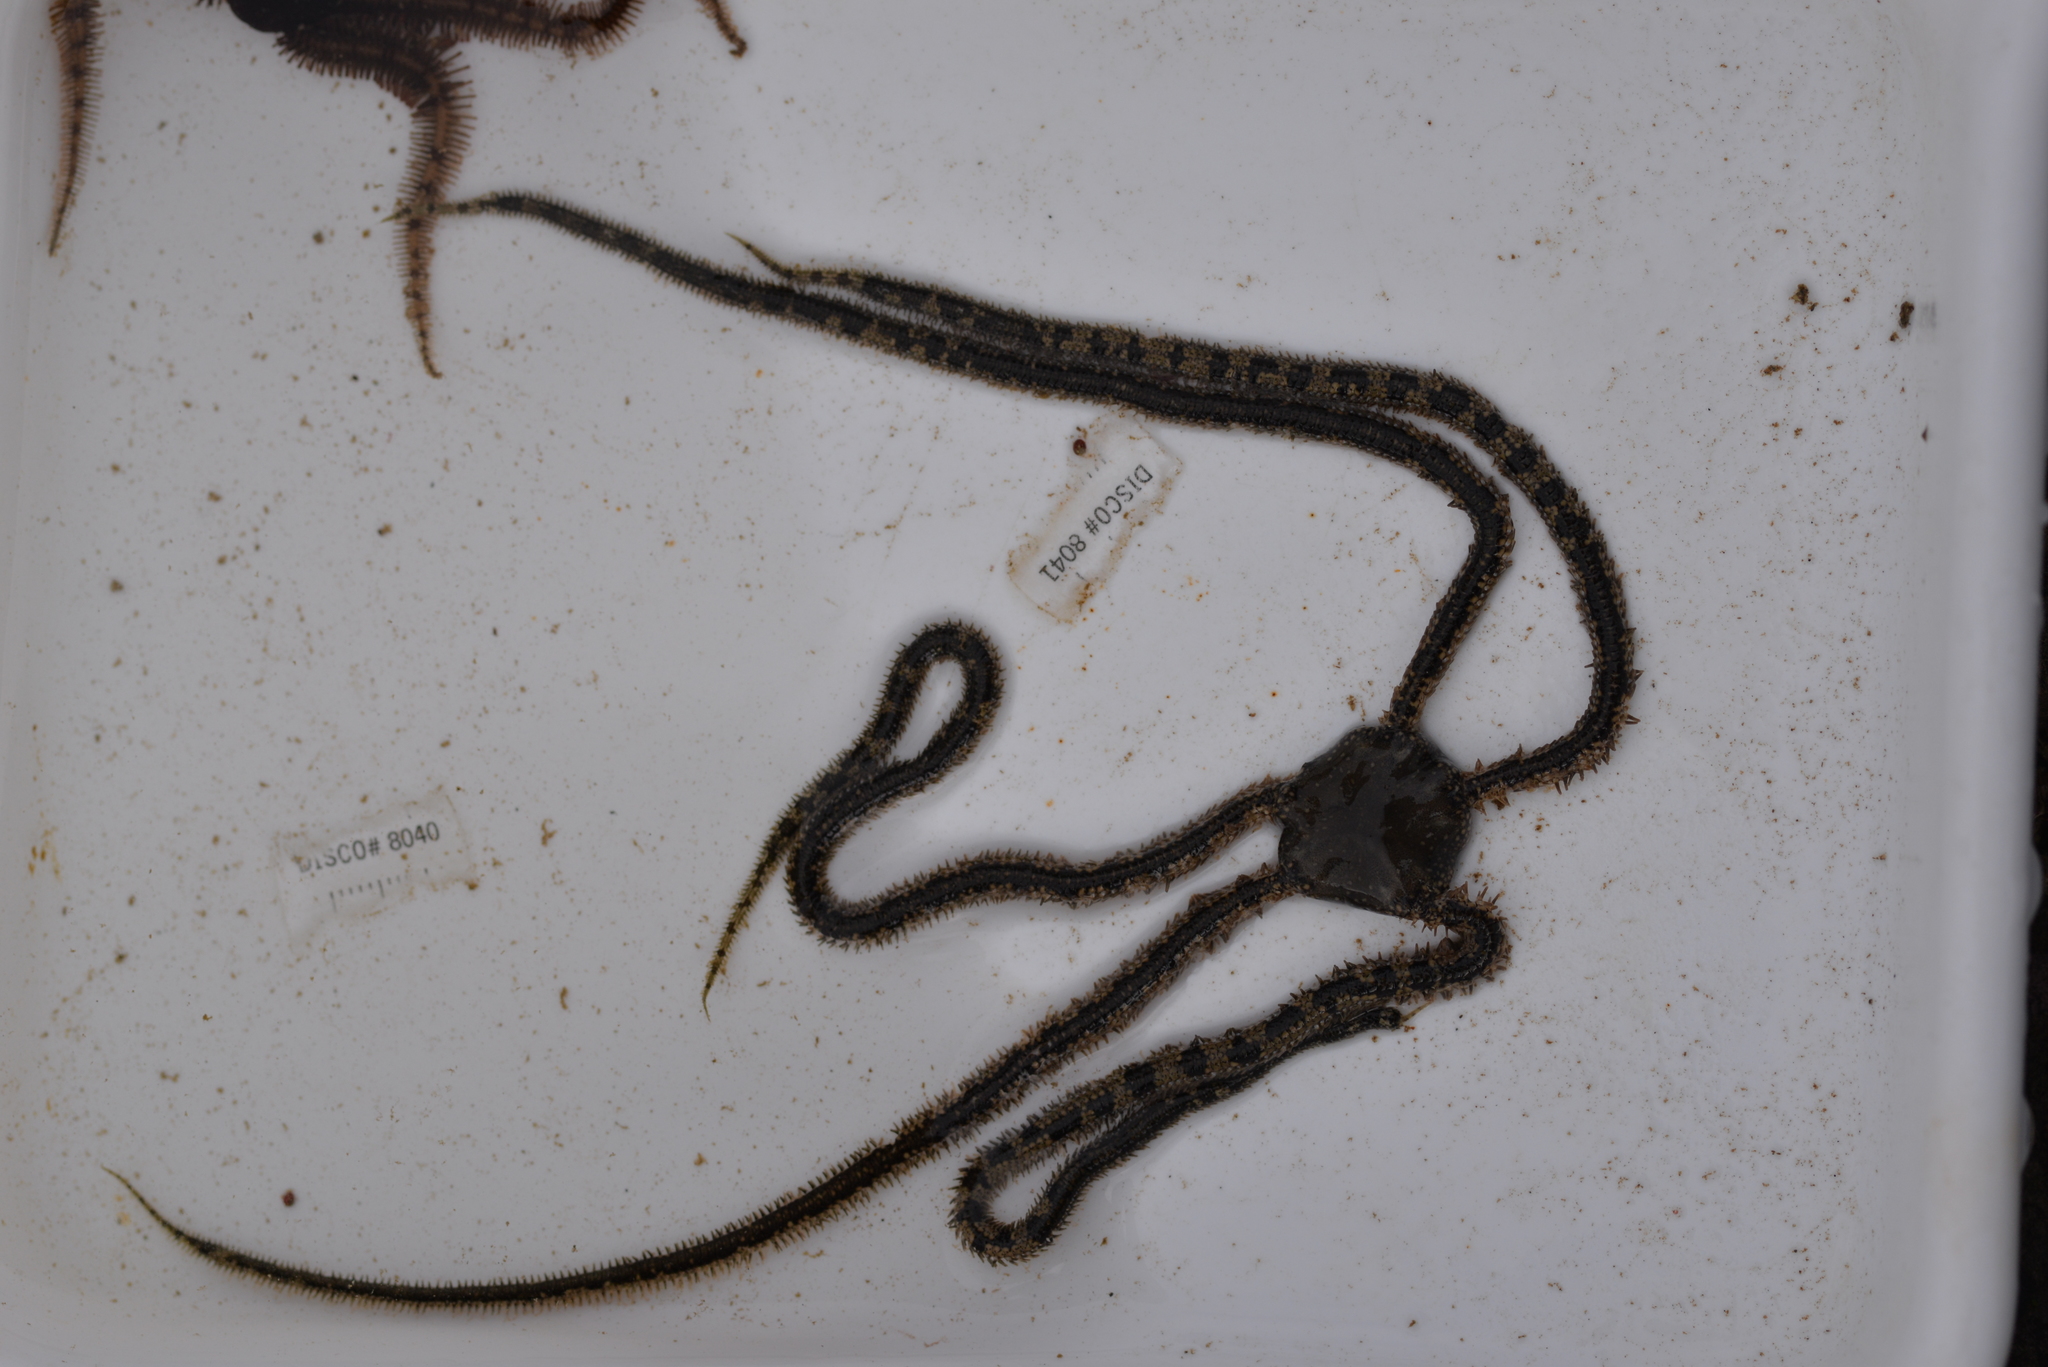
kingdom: Animalia
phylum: Echinodermata
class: Ophiuroidea
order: Amphilepidida
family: Ophionereididae
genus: Ophionereis
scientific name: Ophionereis annulata
